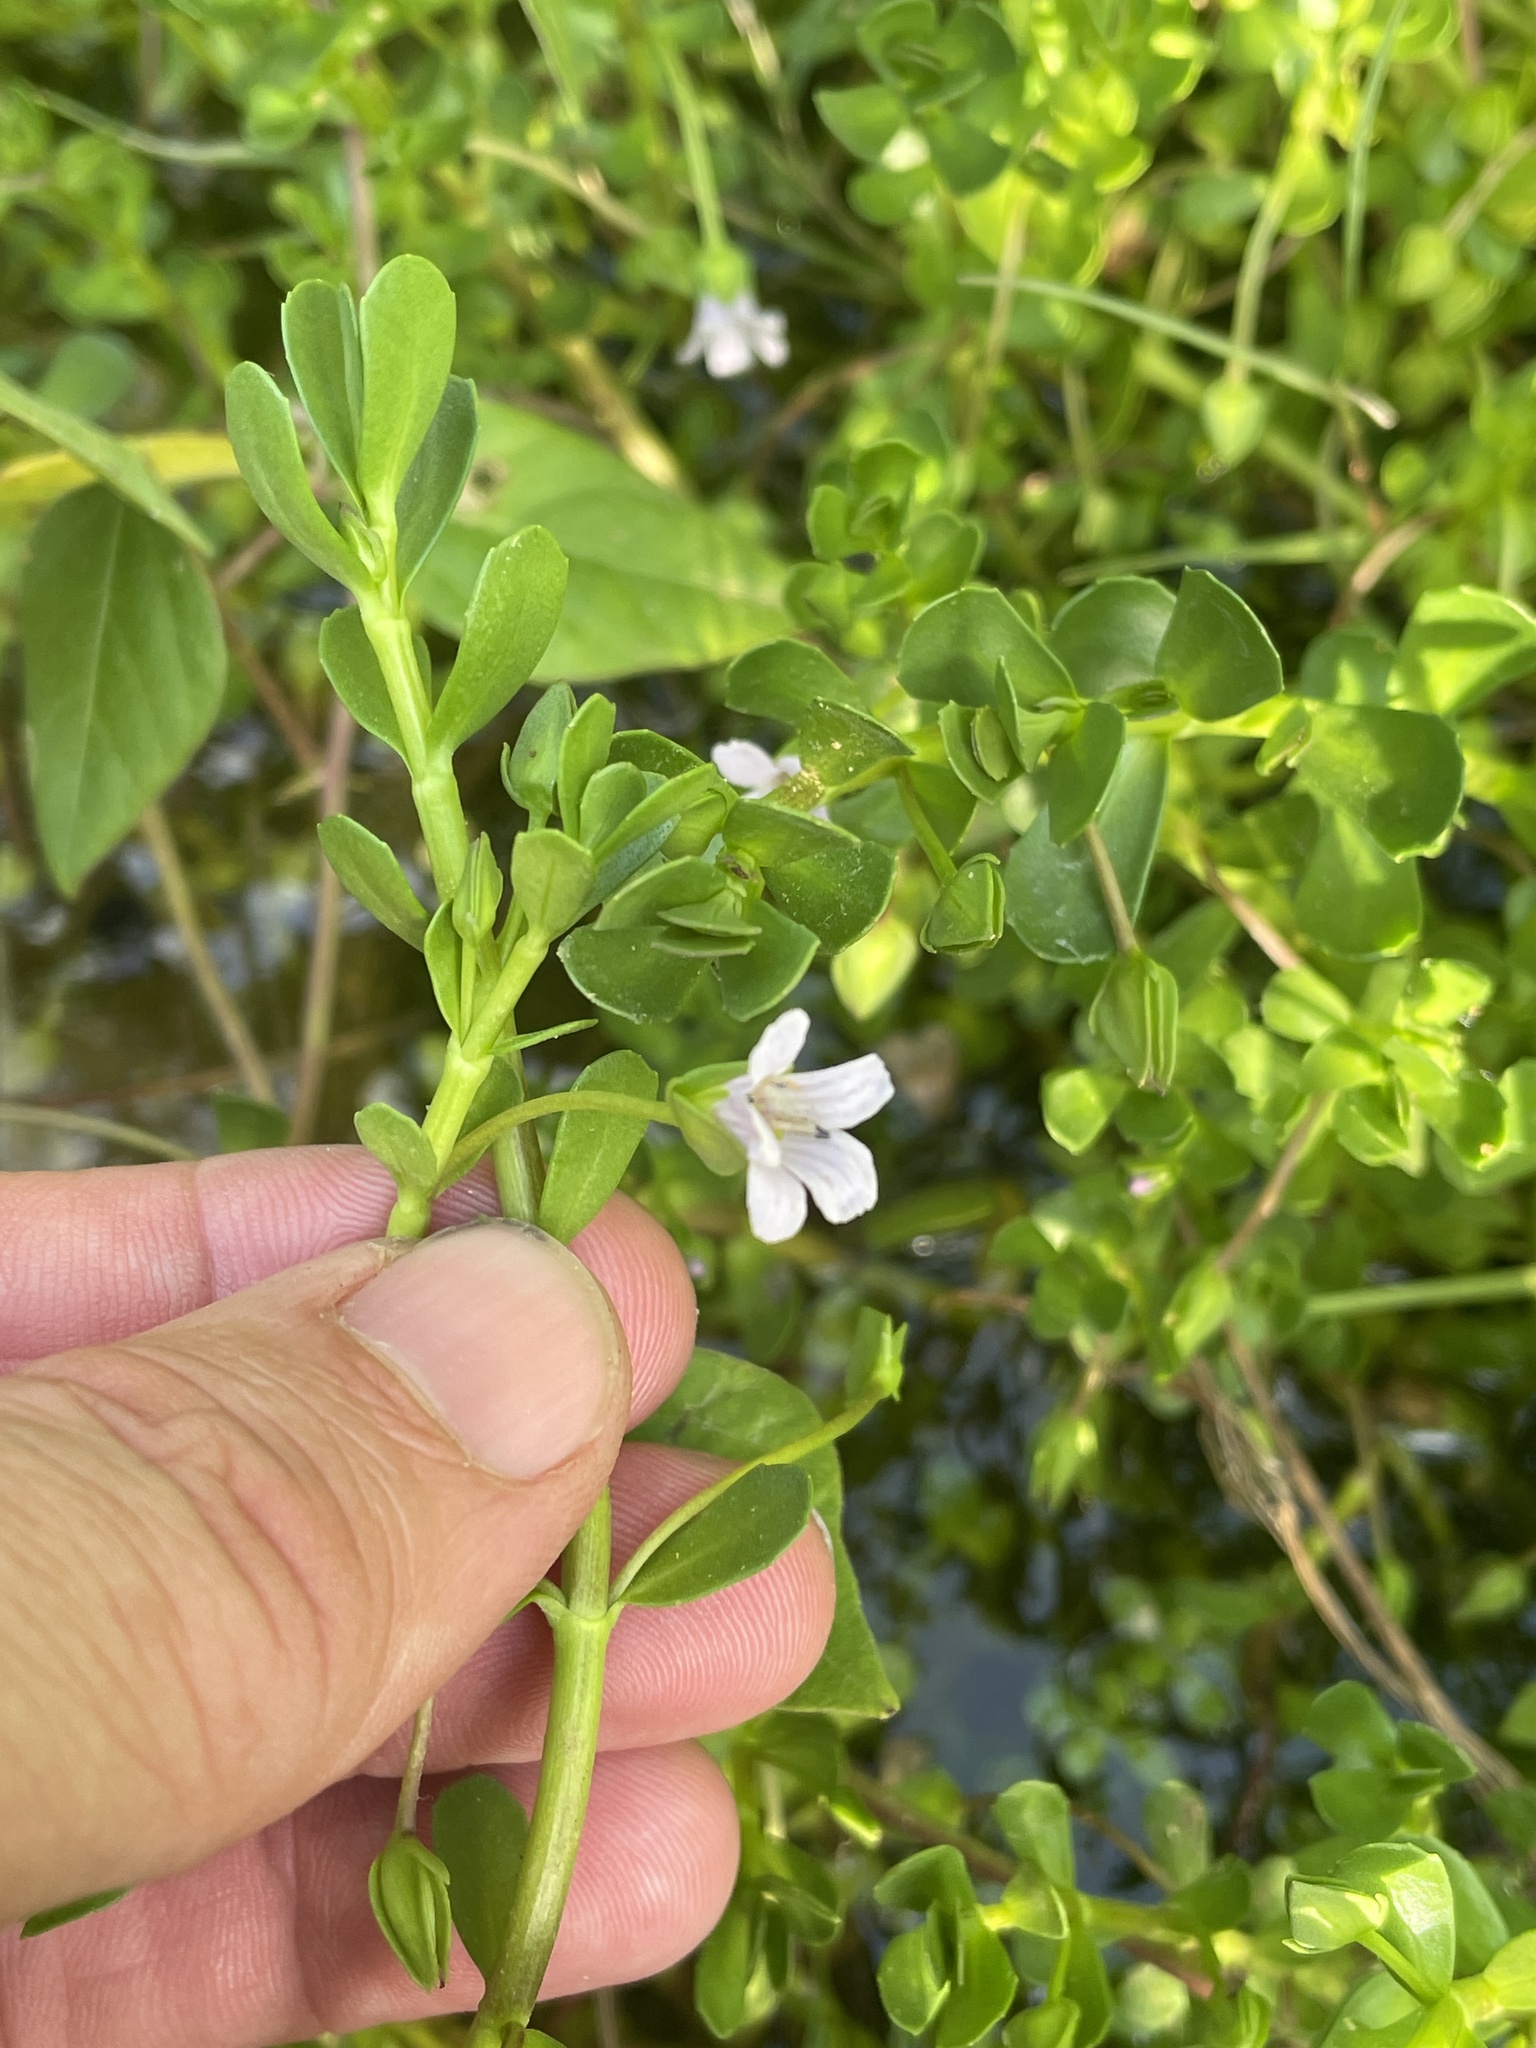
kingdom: Plantae
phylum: Tracheophyta
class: Magnoliopsida
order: Lamiales
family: Plantaginaceae
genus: Bacopa
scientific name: Bacopa monnieri
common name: Indian-pennywort
